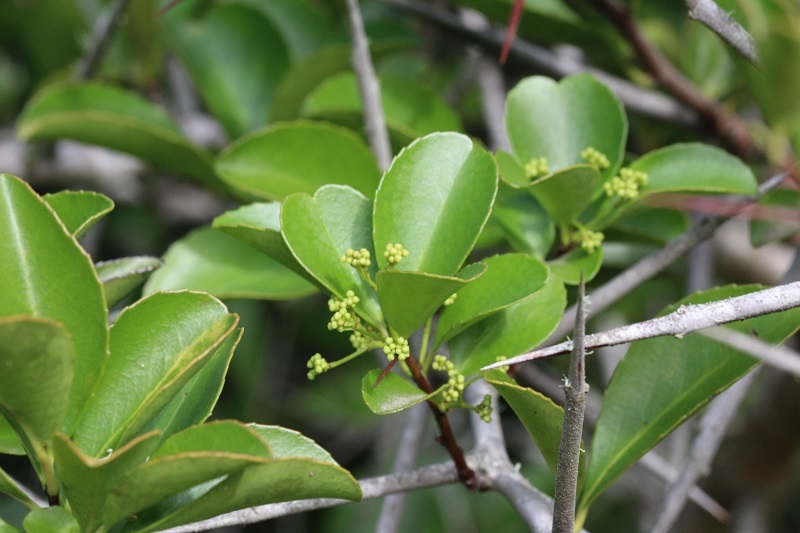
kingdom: Plantae
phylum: Tracheophyta
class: Magnoliopsida
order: Celastrales
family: Celastraceae
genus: Gymnosporia
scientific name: Gymnosporia nemorosa
